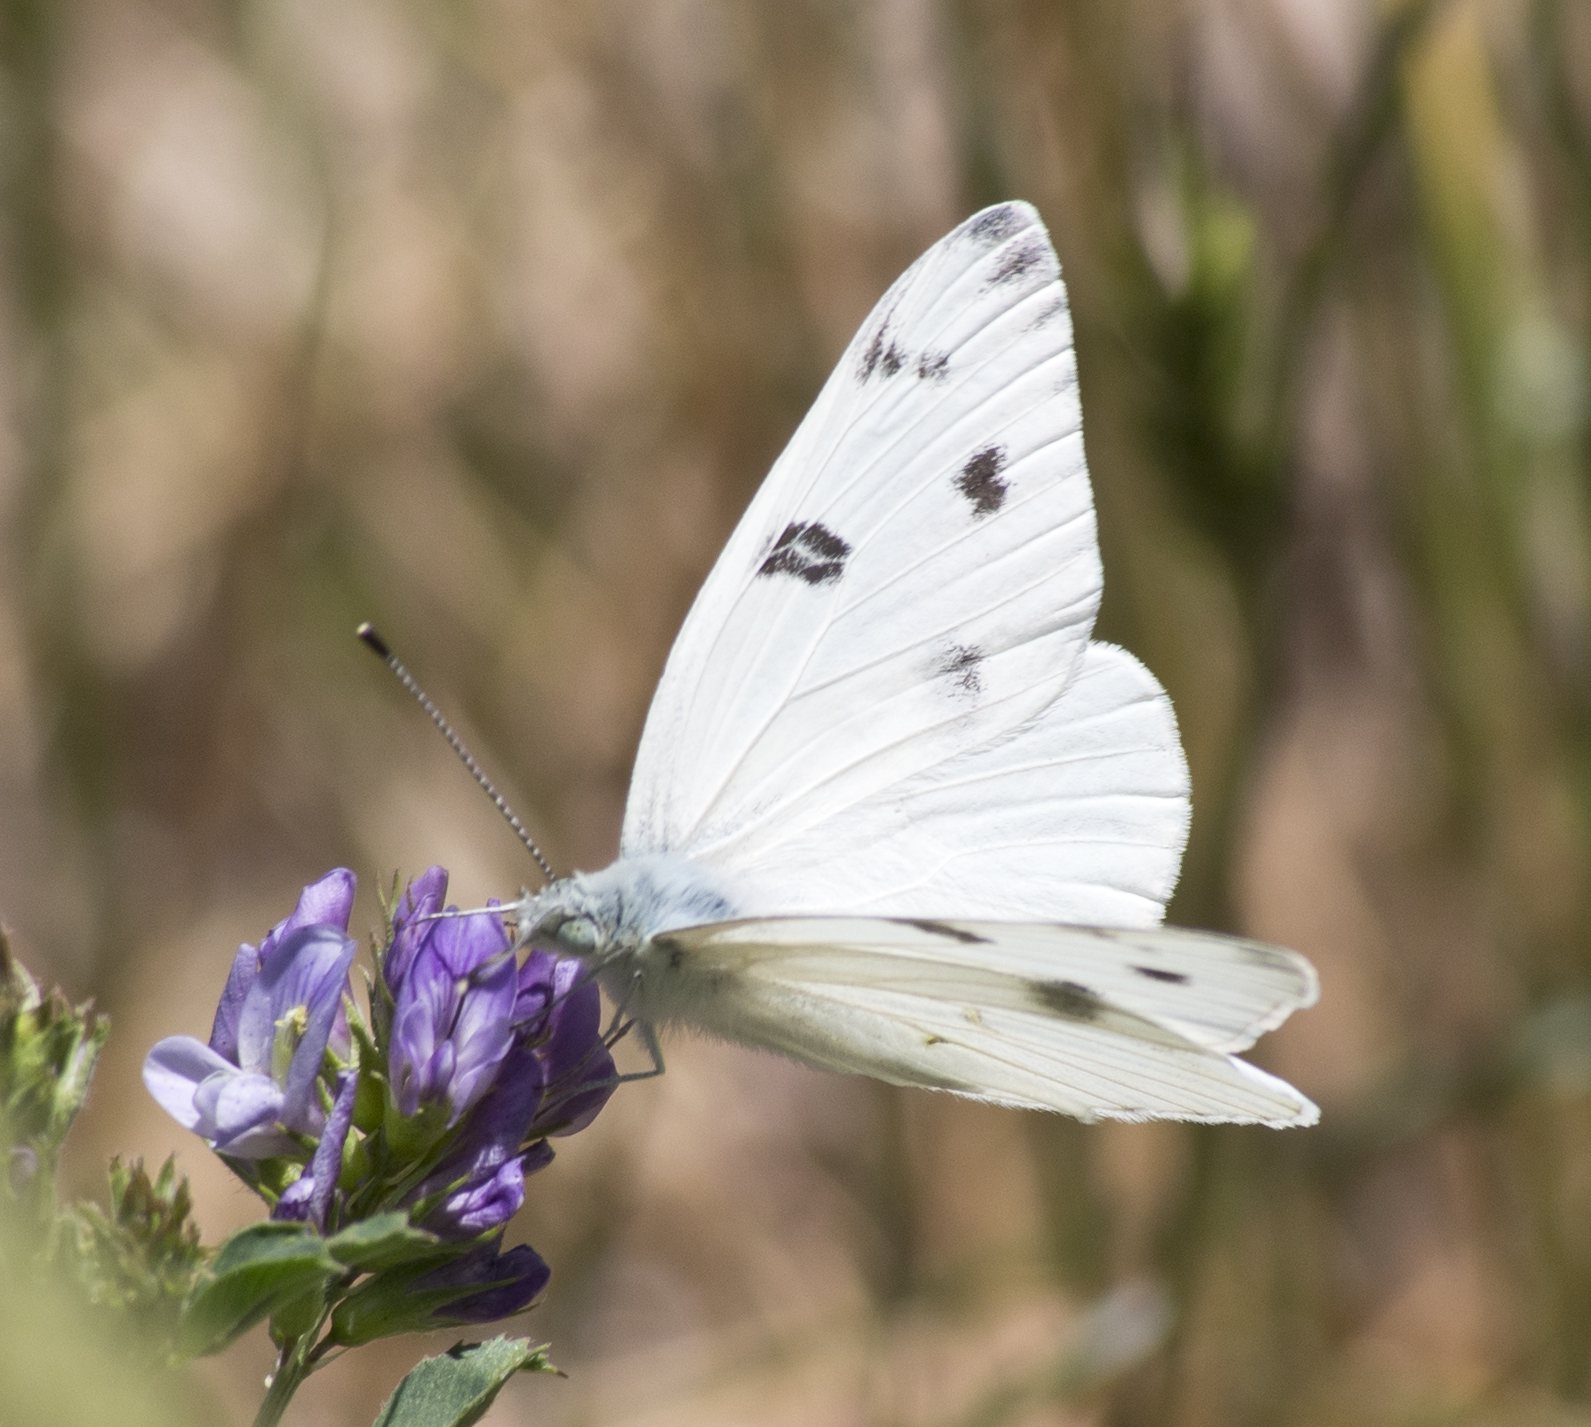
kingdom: Animalia
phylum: Arthropoda
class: Insecta
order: Lepidoptera
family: Pieridae
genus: Pontia
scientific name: Pontia protodice
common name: Checkered white
